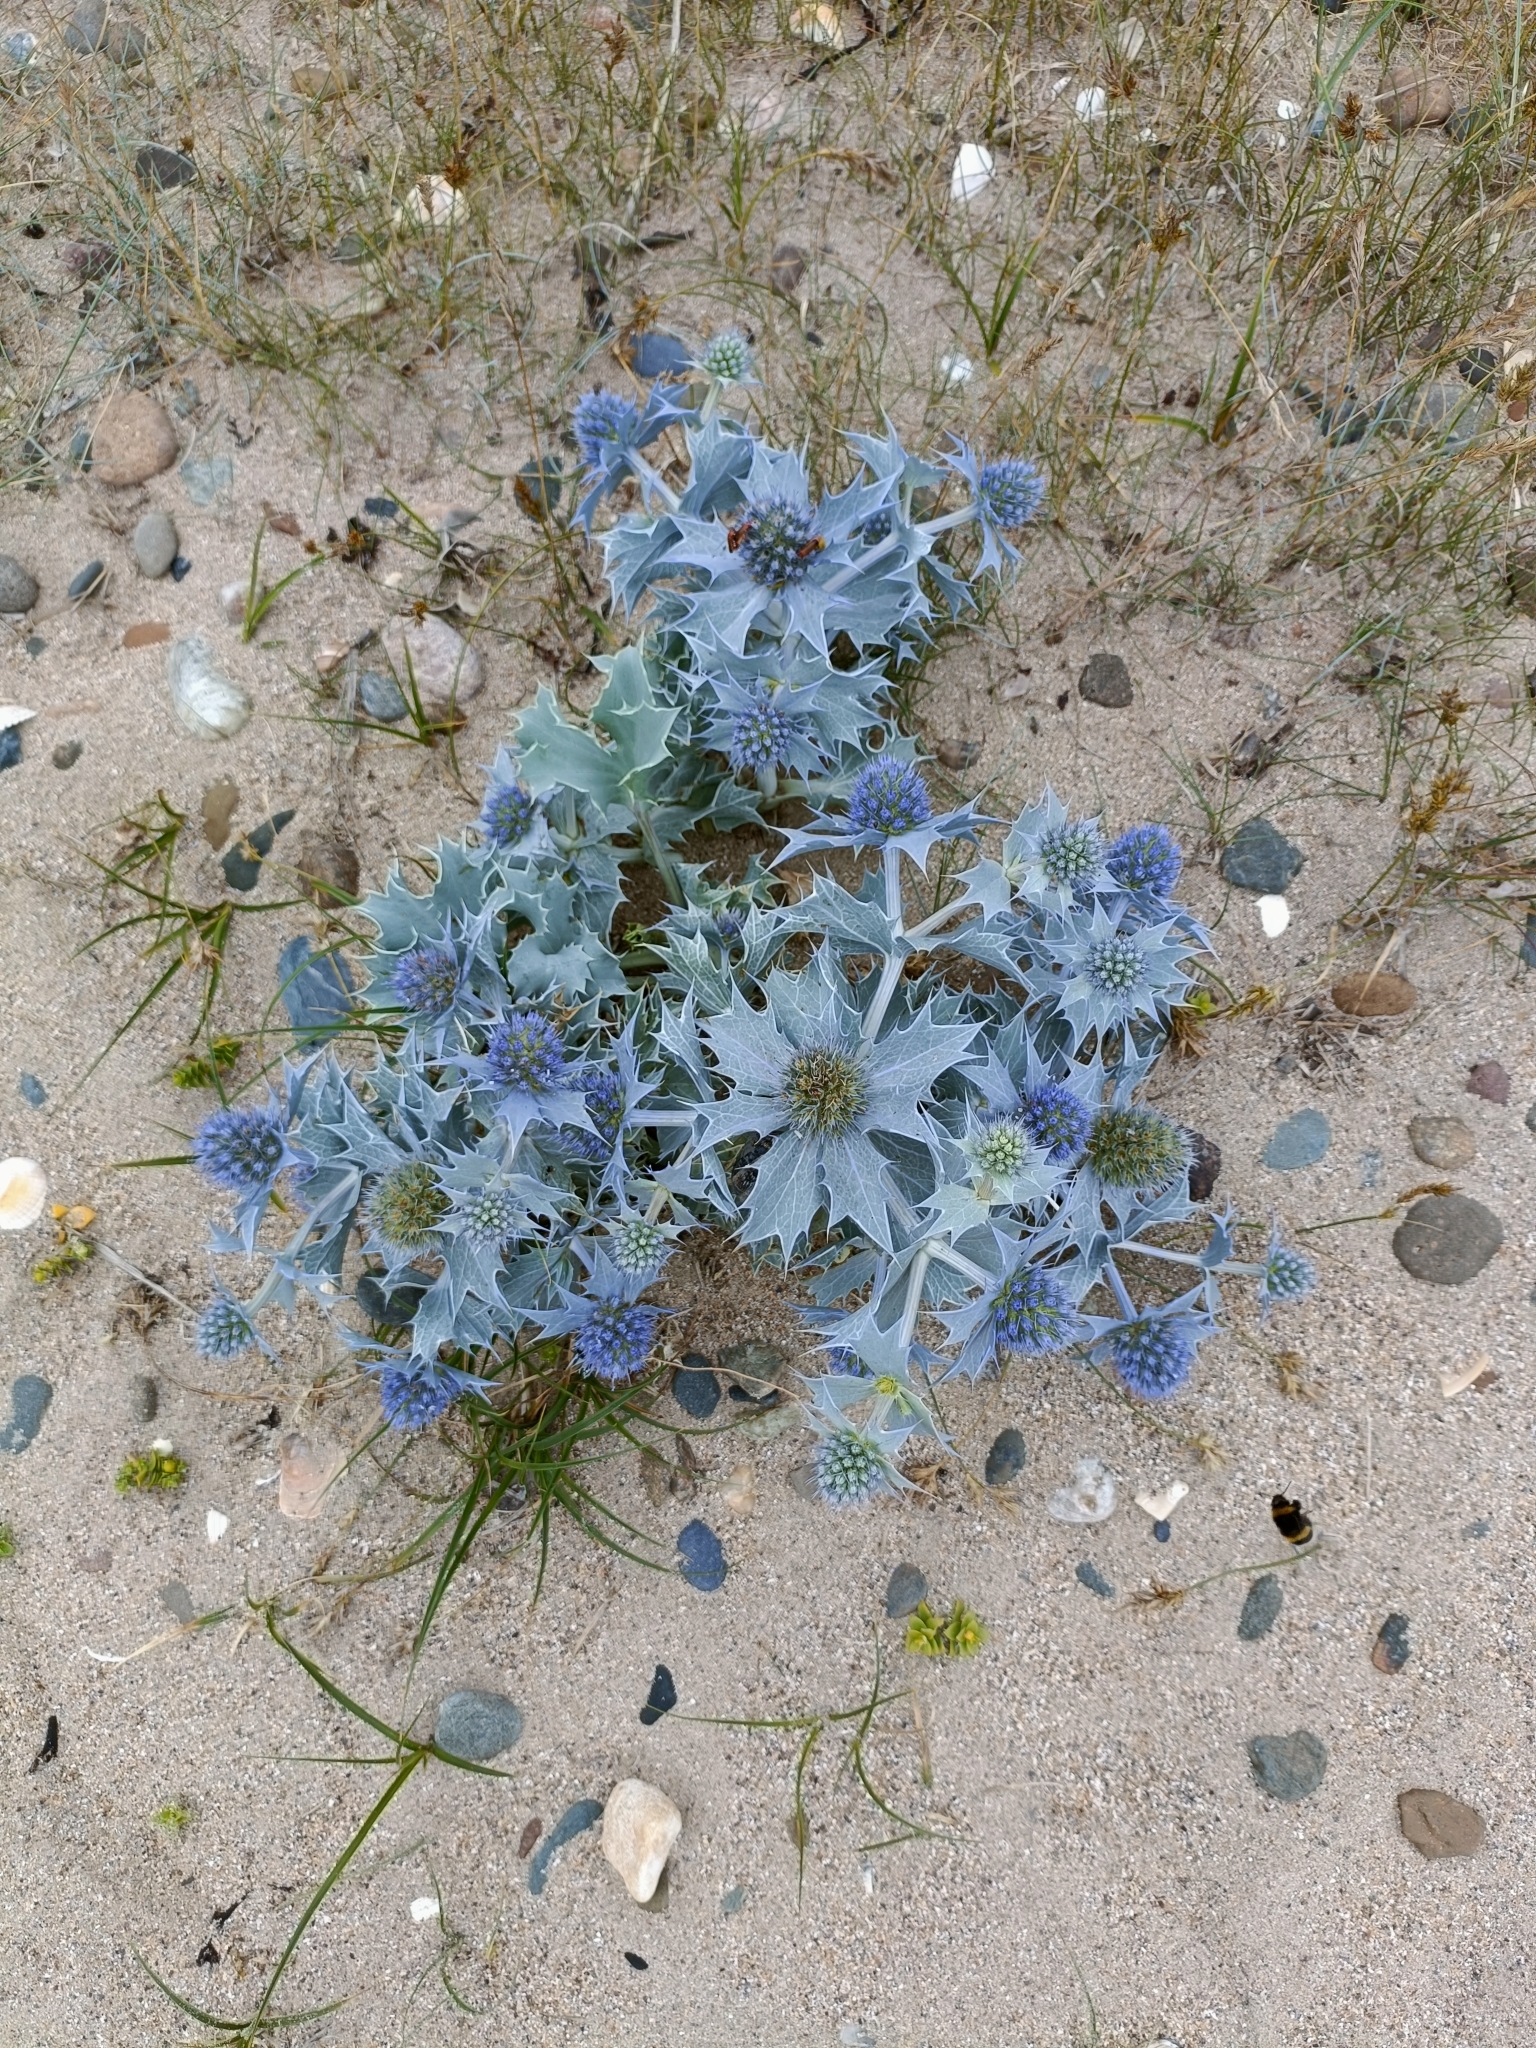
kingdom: Plantae
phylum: Tracheophyta
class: Magnoliopsida
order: Apiales
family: Apiaceae
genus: Eryngium
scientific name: Eryngium maritimum
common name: Sea-holly
